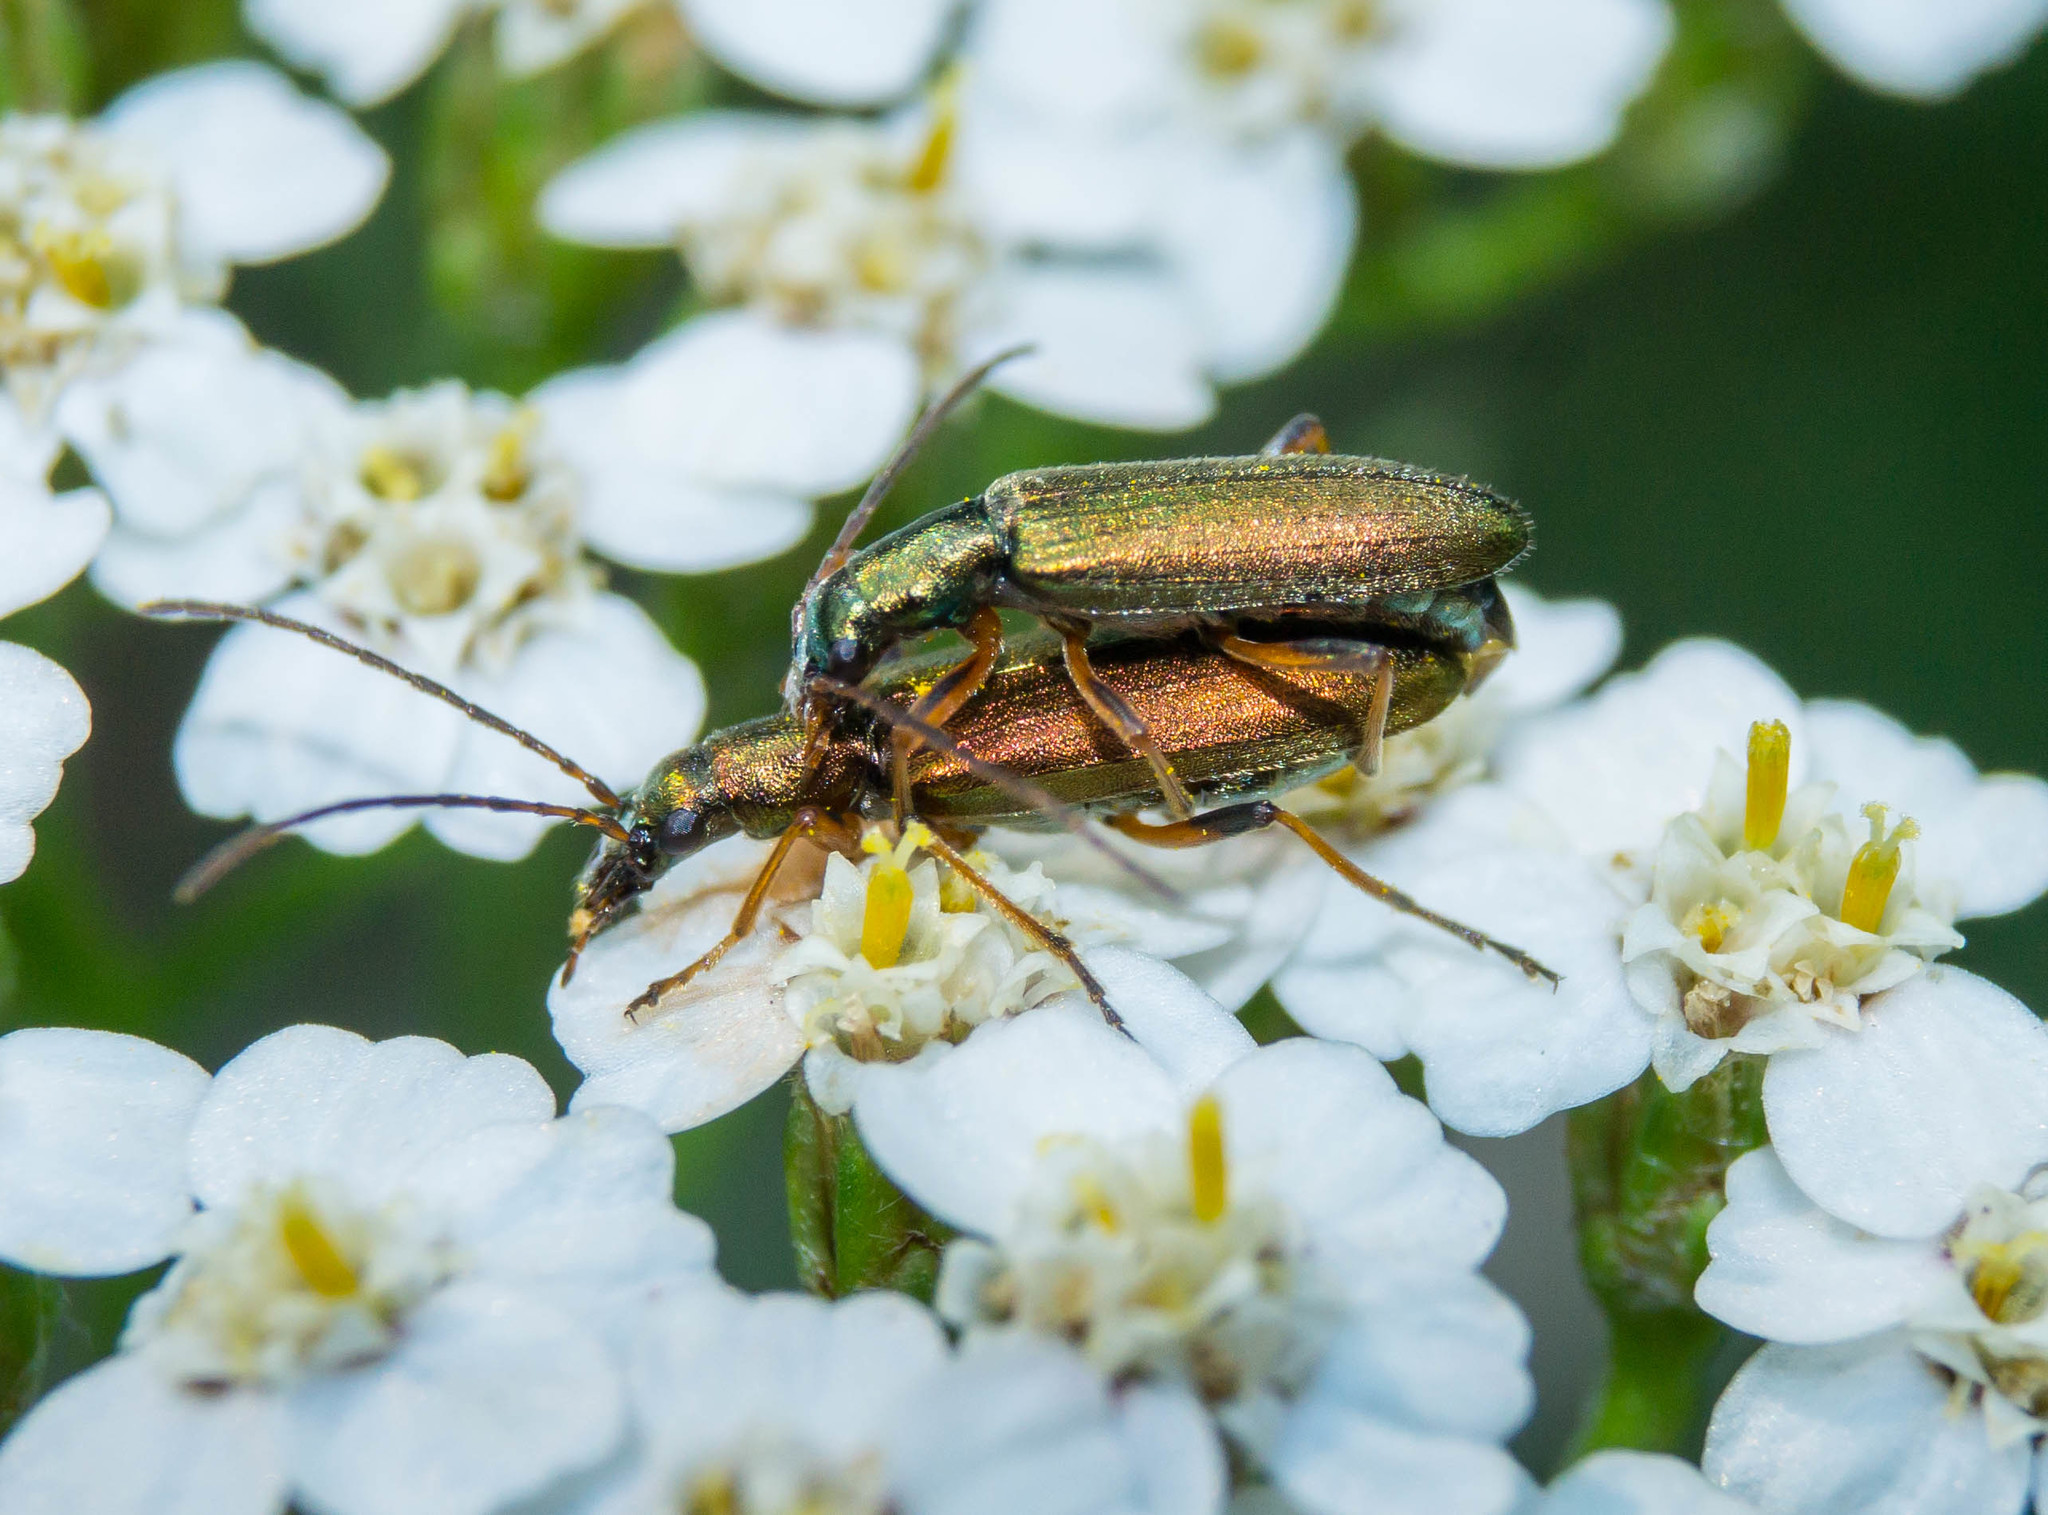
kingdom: Animalia
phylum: Arthropoda
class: Insecta
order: Coleoptera
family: Oedemeridae
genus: Chrysanthia
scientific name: Chrysanthia geniculata
